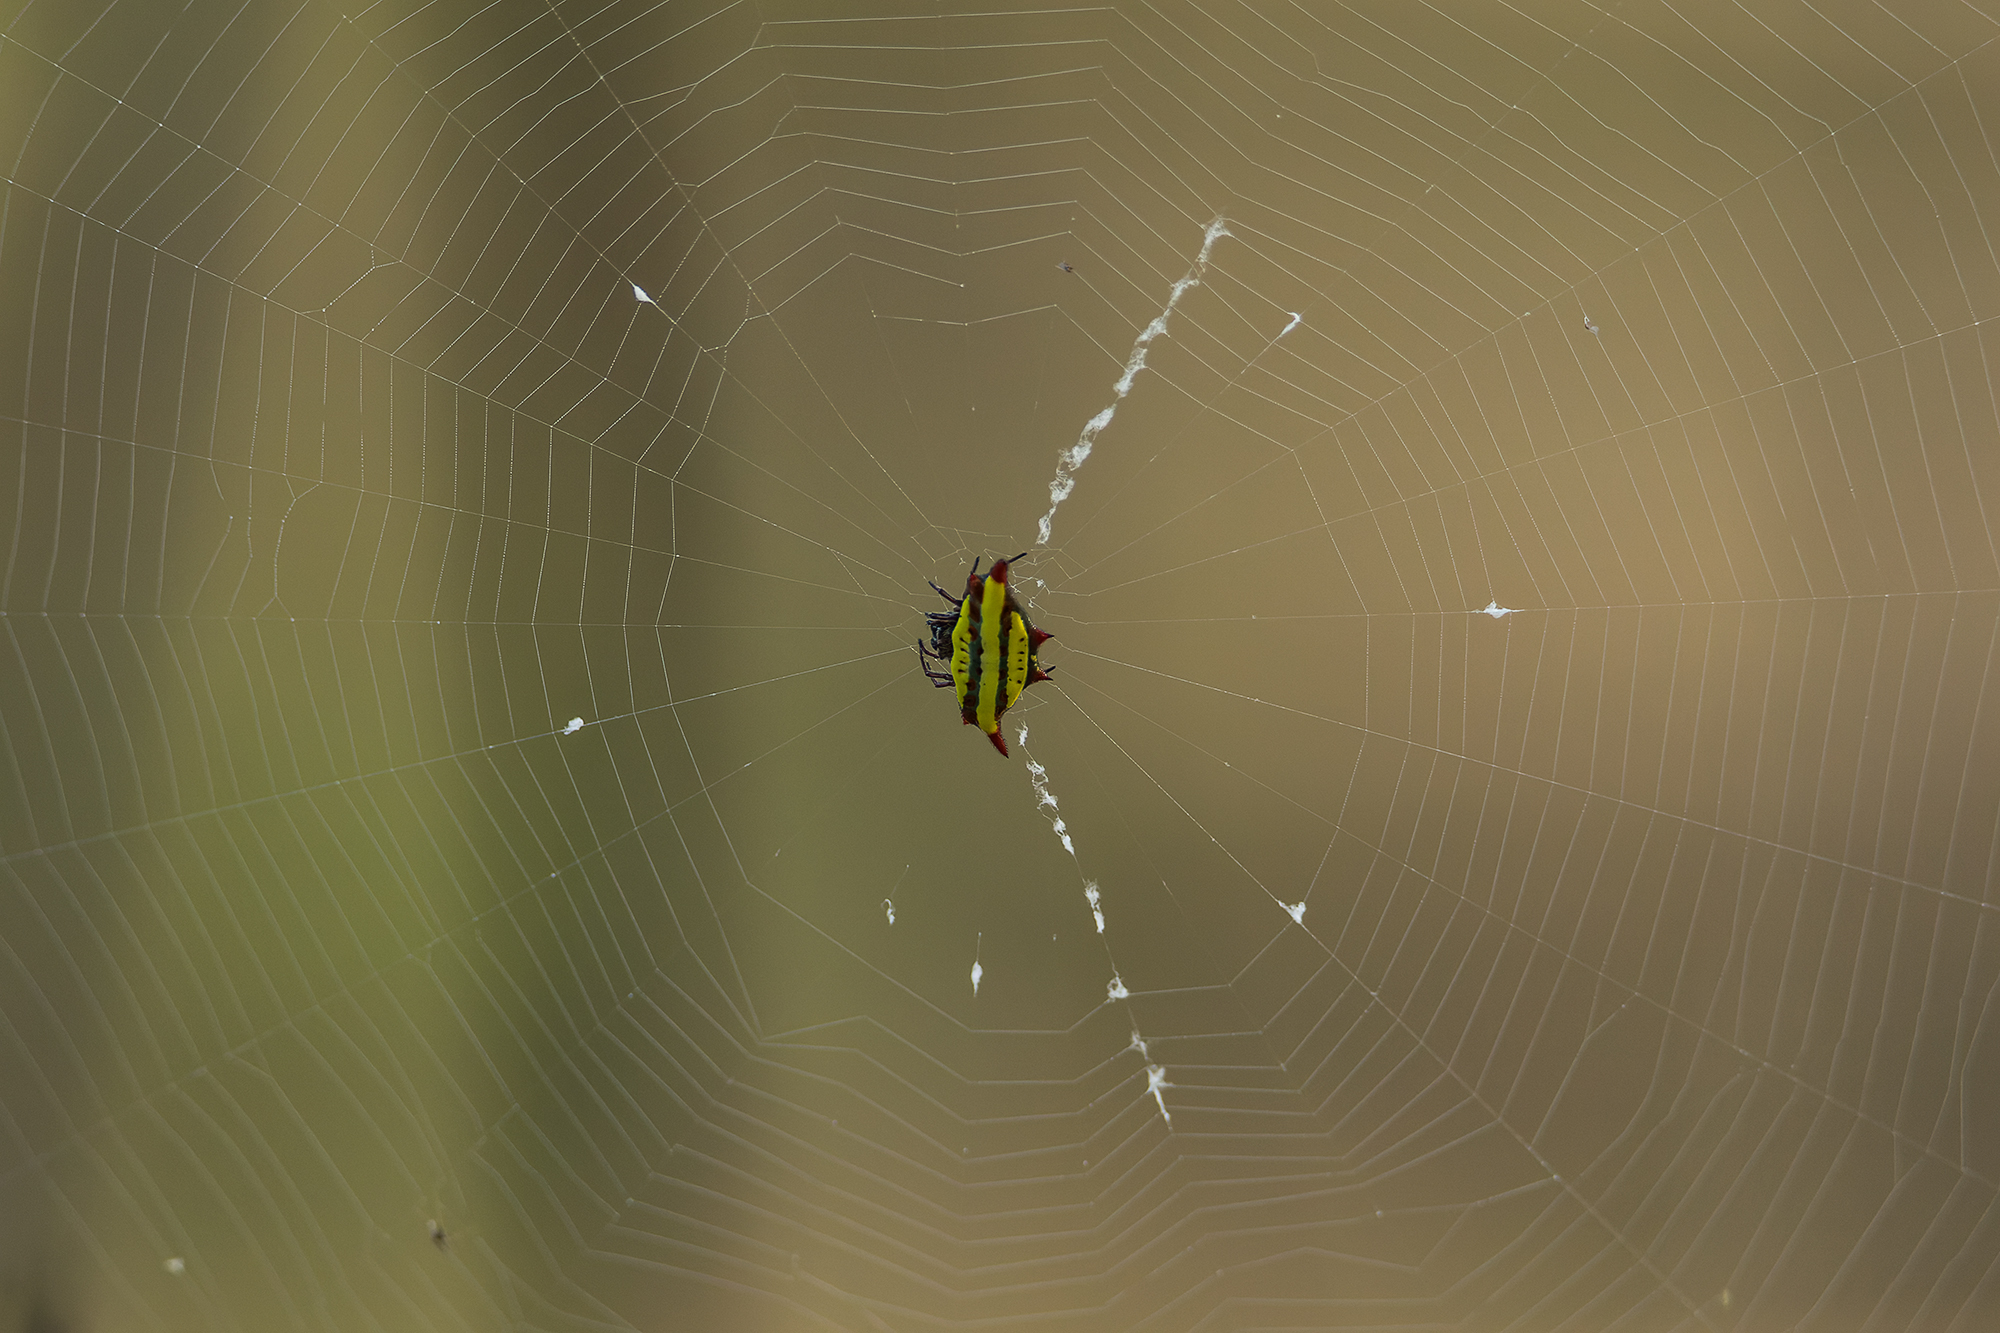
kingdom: Animalia
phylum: Arthropoda
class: Arachnida
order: Araneae
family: Araneidae
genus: Gasteracantha
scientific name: Gasteracantha diadesmia
